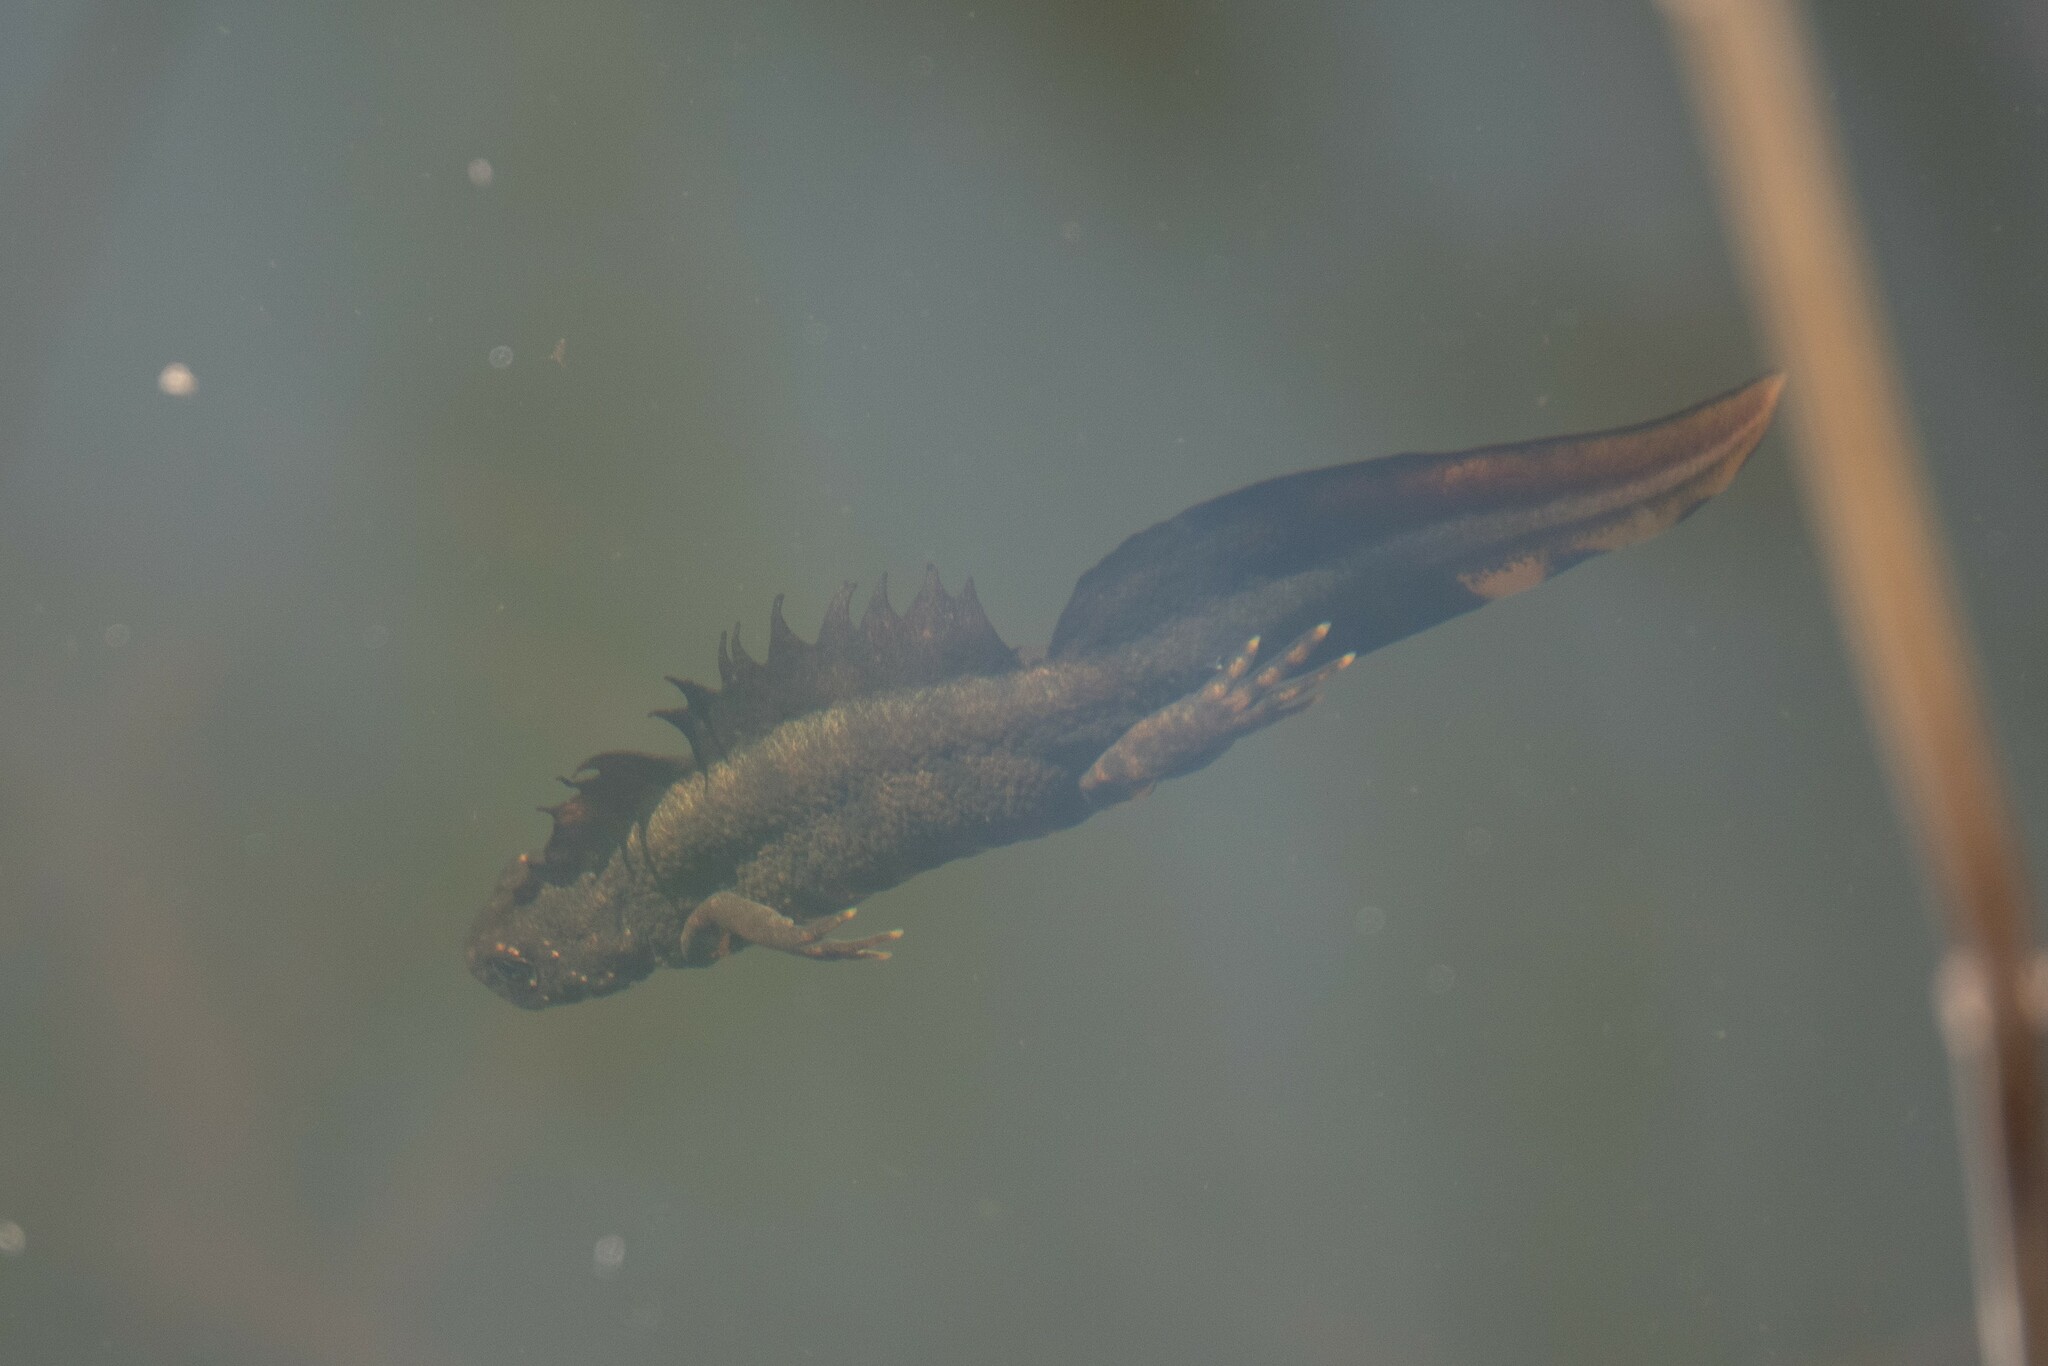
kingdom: Animalia
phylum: Chordata
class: Amphibia
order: Caudata
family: Salamandridae
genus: Triturus
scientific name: Triturus carnifex
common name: Italian crested newt
